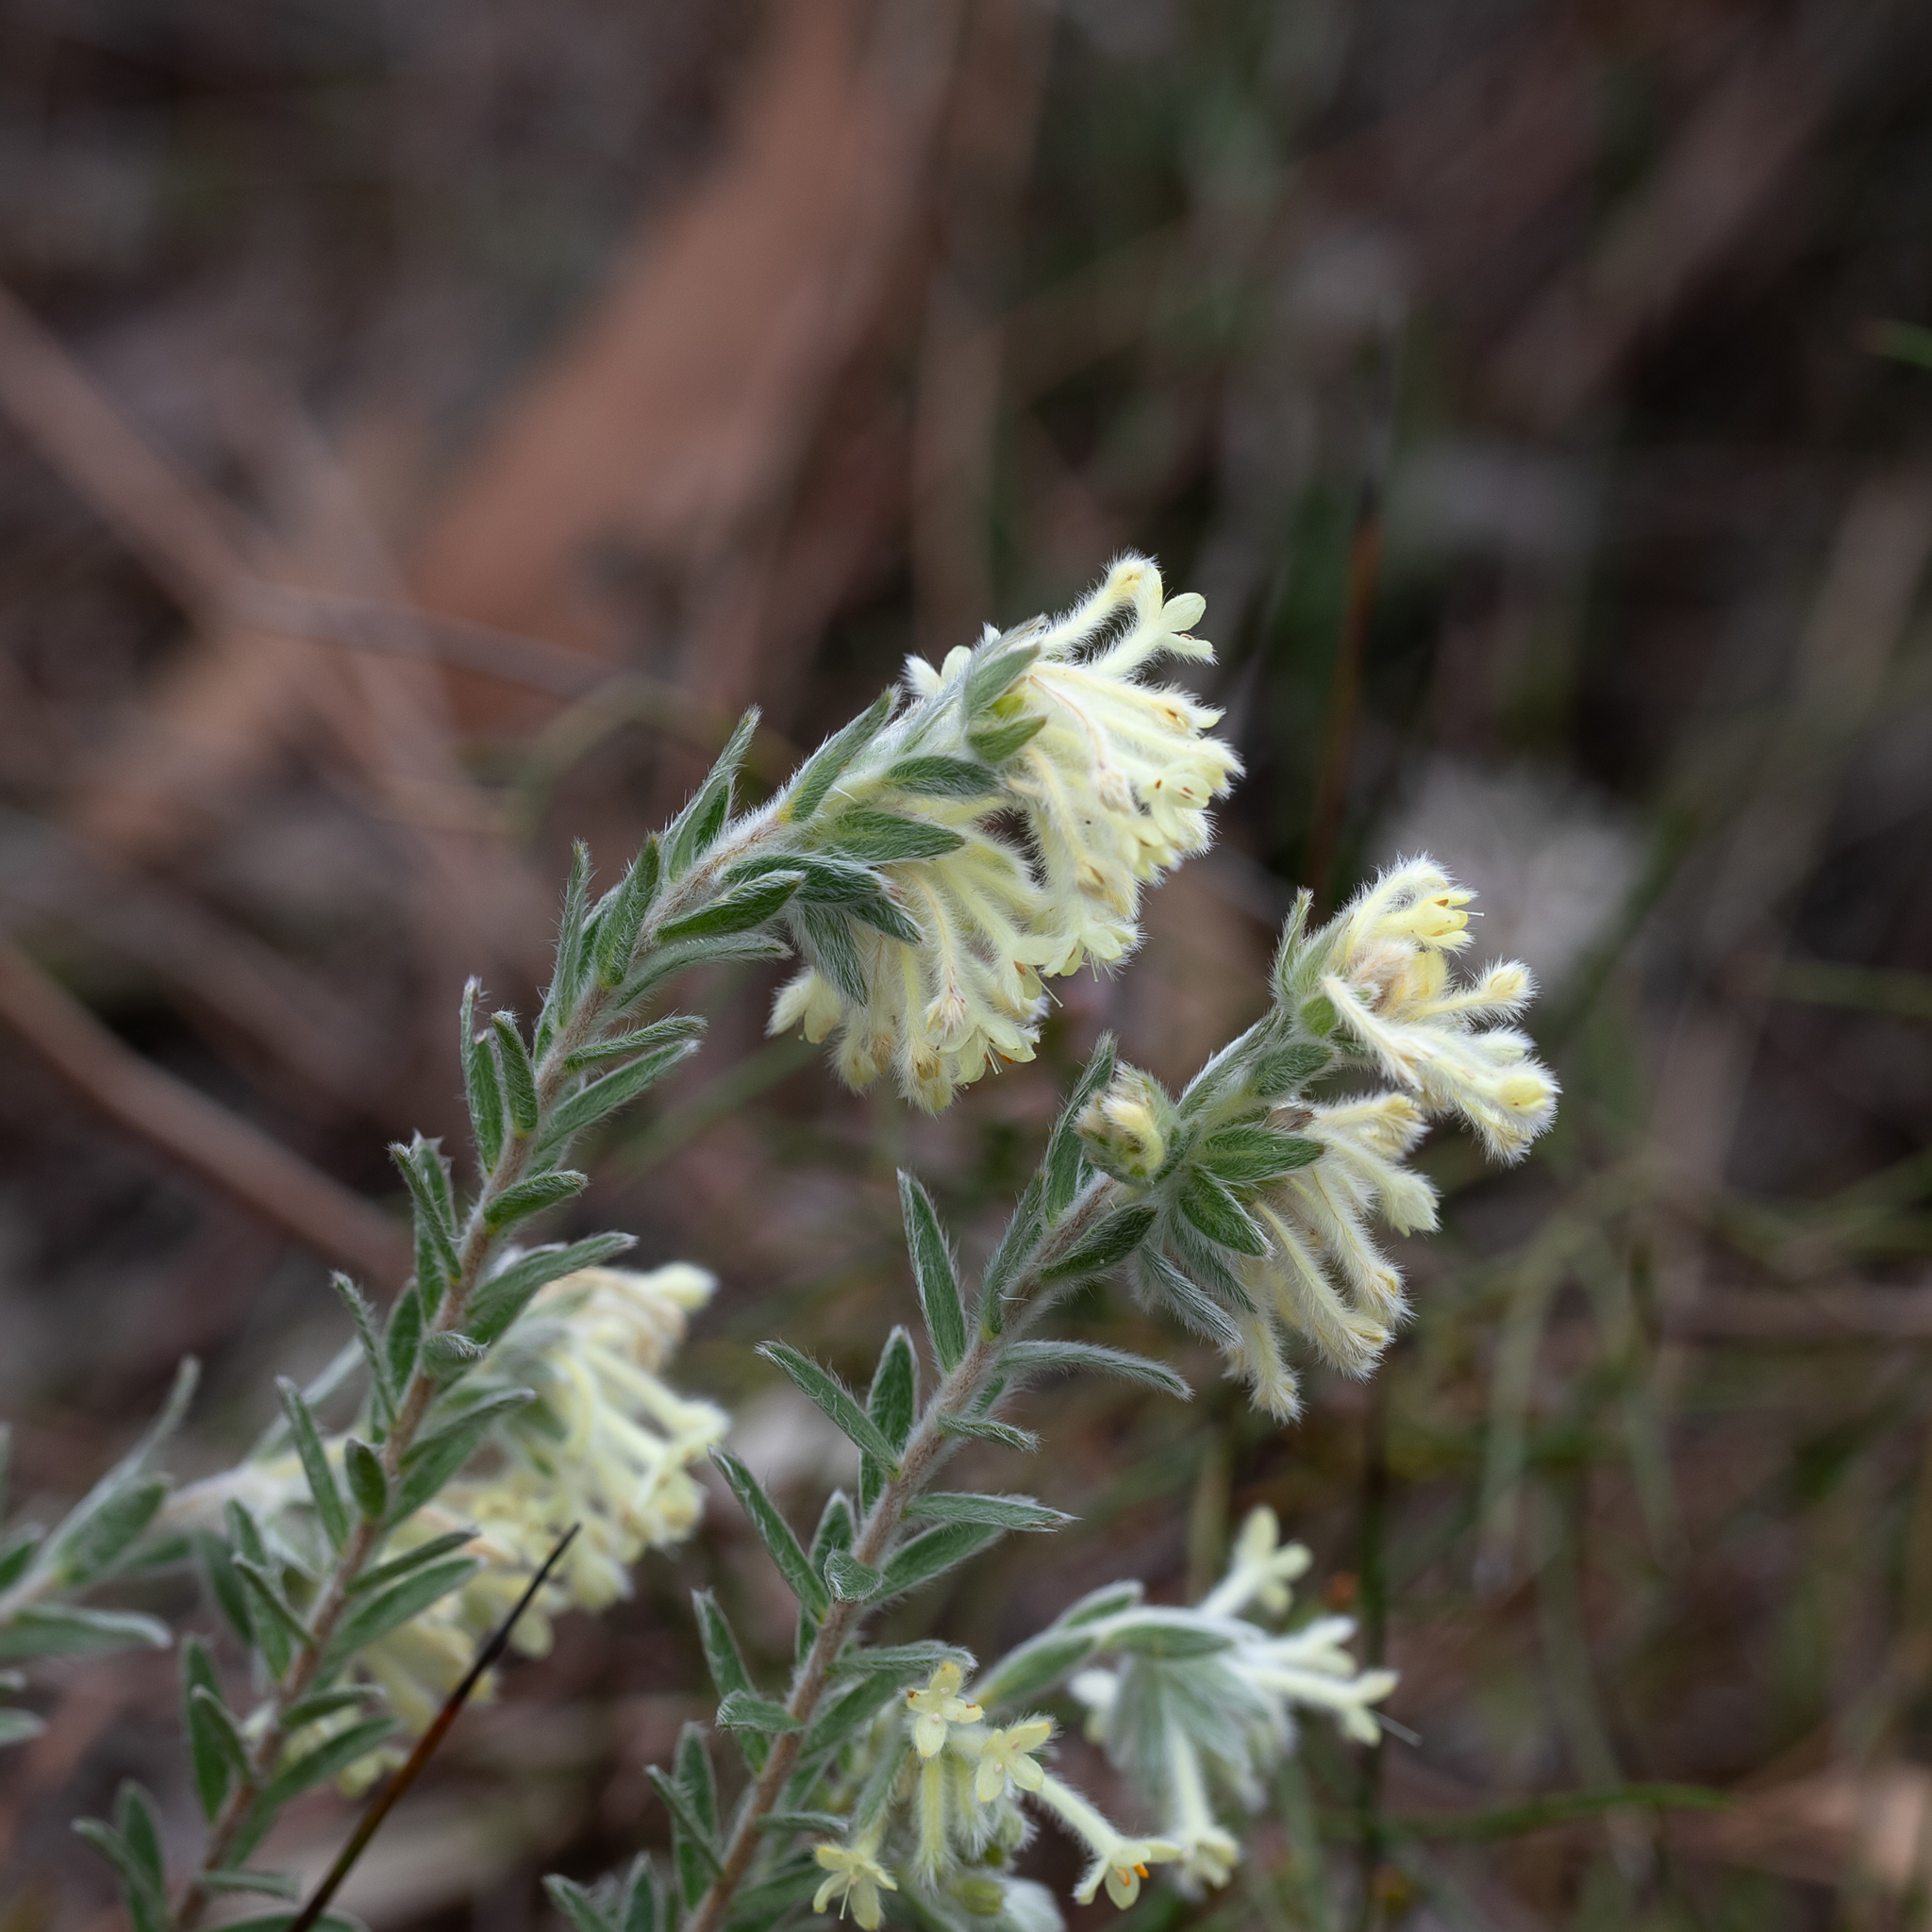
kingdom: Plantae
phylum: Tracheophyta
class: Magnoliopsida
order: Malvales
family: Thymelaeaceae
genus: Pimelea
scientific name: Pimelea octophylla
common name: Woolly riceflower
